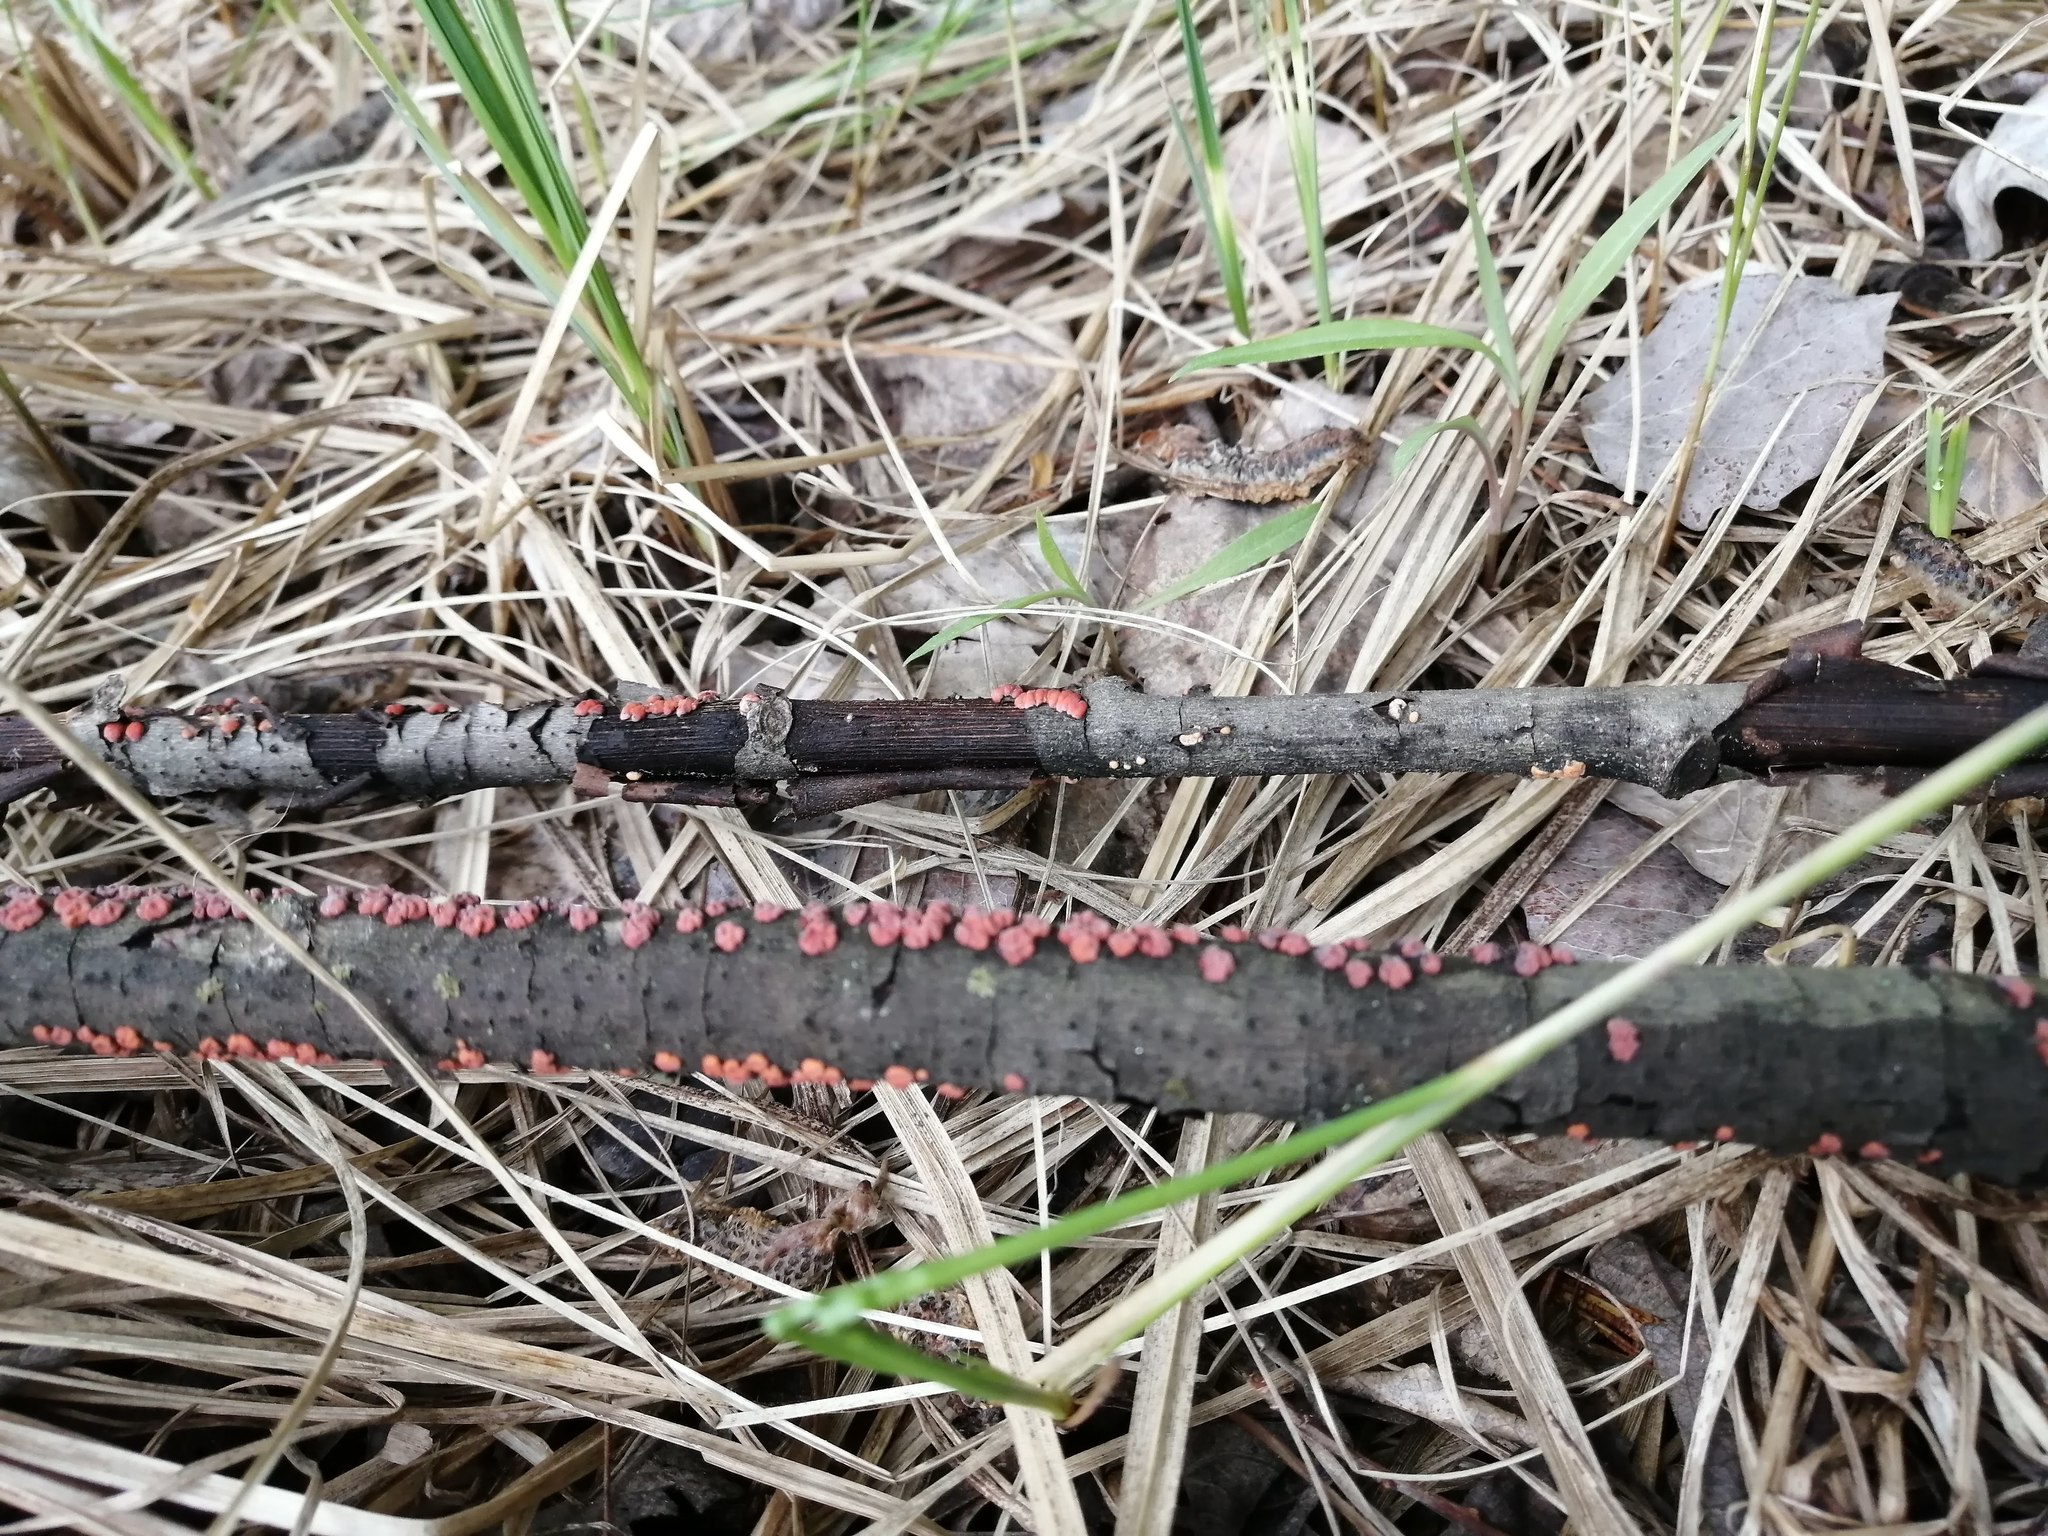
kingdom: Fungi
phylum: Basidiomycota
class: Agaricomycetes
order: Russulales
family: Peniophoraceae
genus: Peniophora
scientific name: Peniophora rufa
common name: Red tree brain fungus
